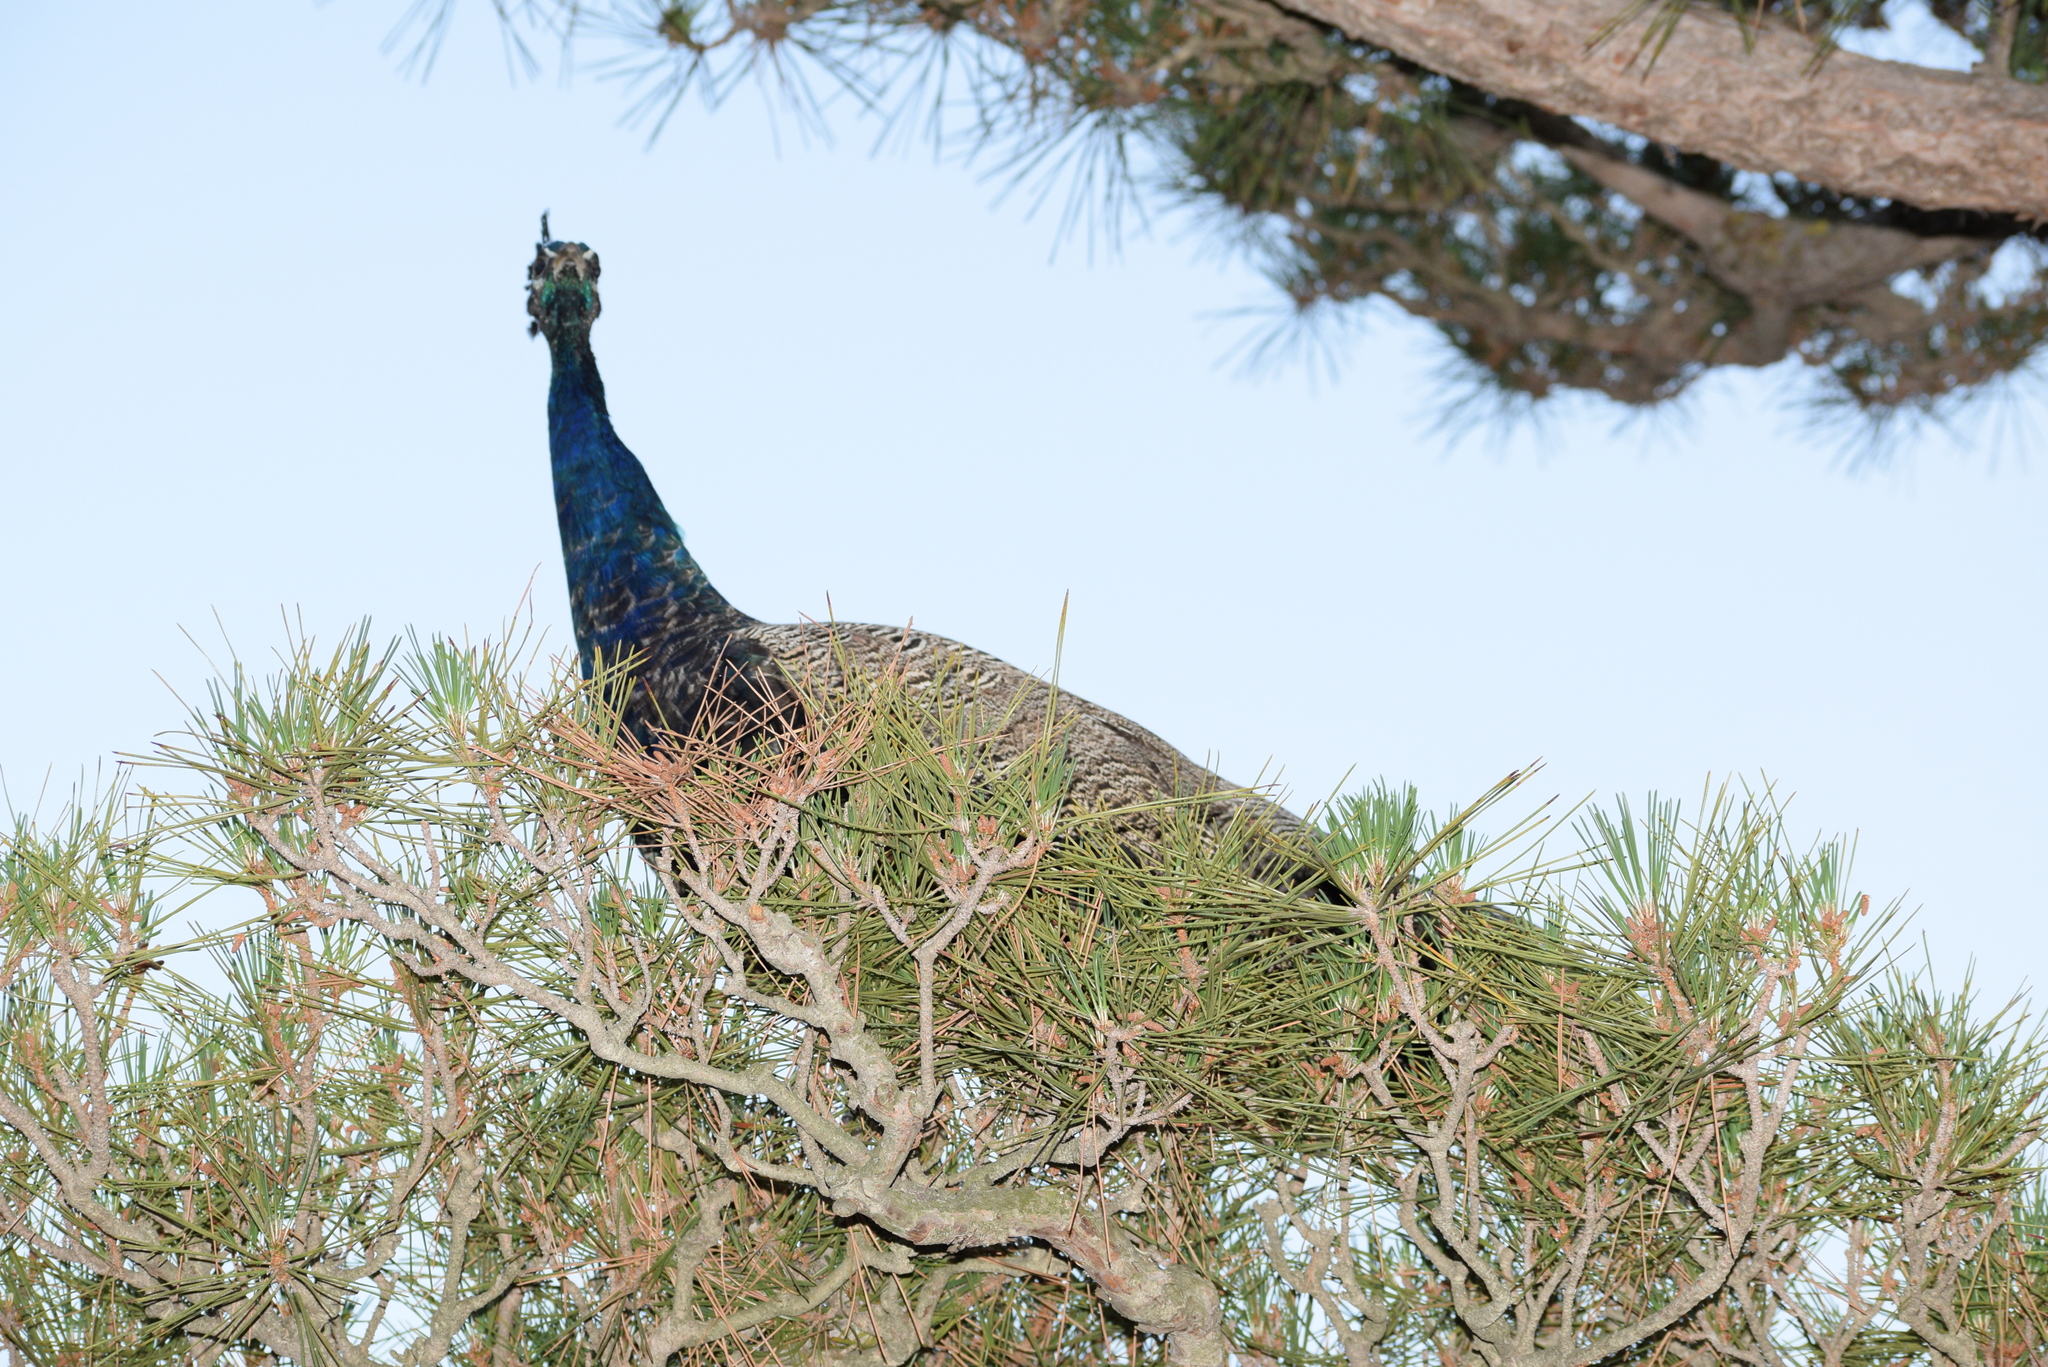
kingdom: Animalia
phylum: Chordata
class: Aves
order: Galliformes
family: Phasianidae
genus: Pavo
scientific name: Pavo cristatus
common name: Indian peafowl
